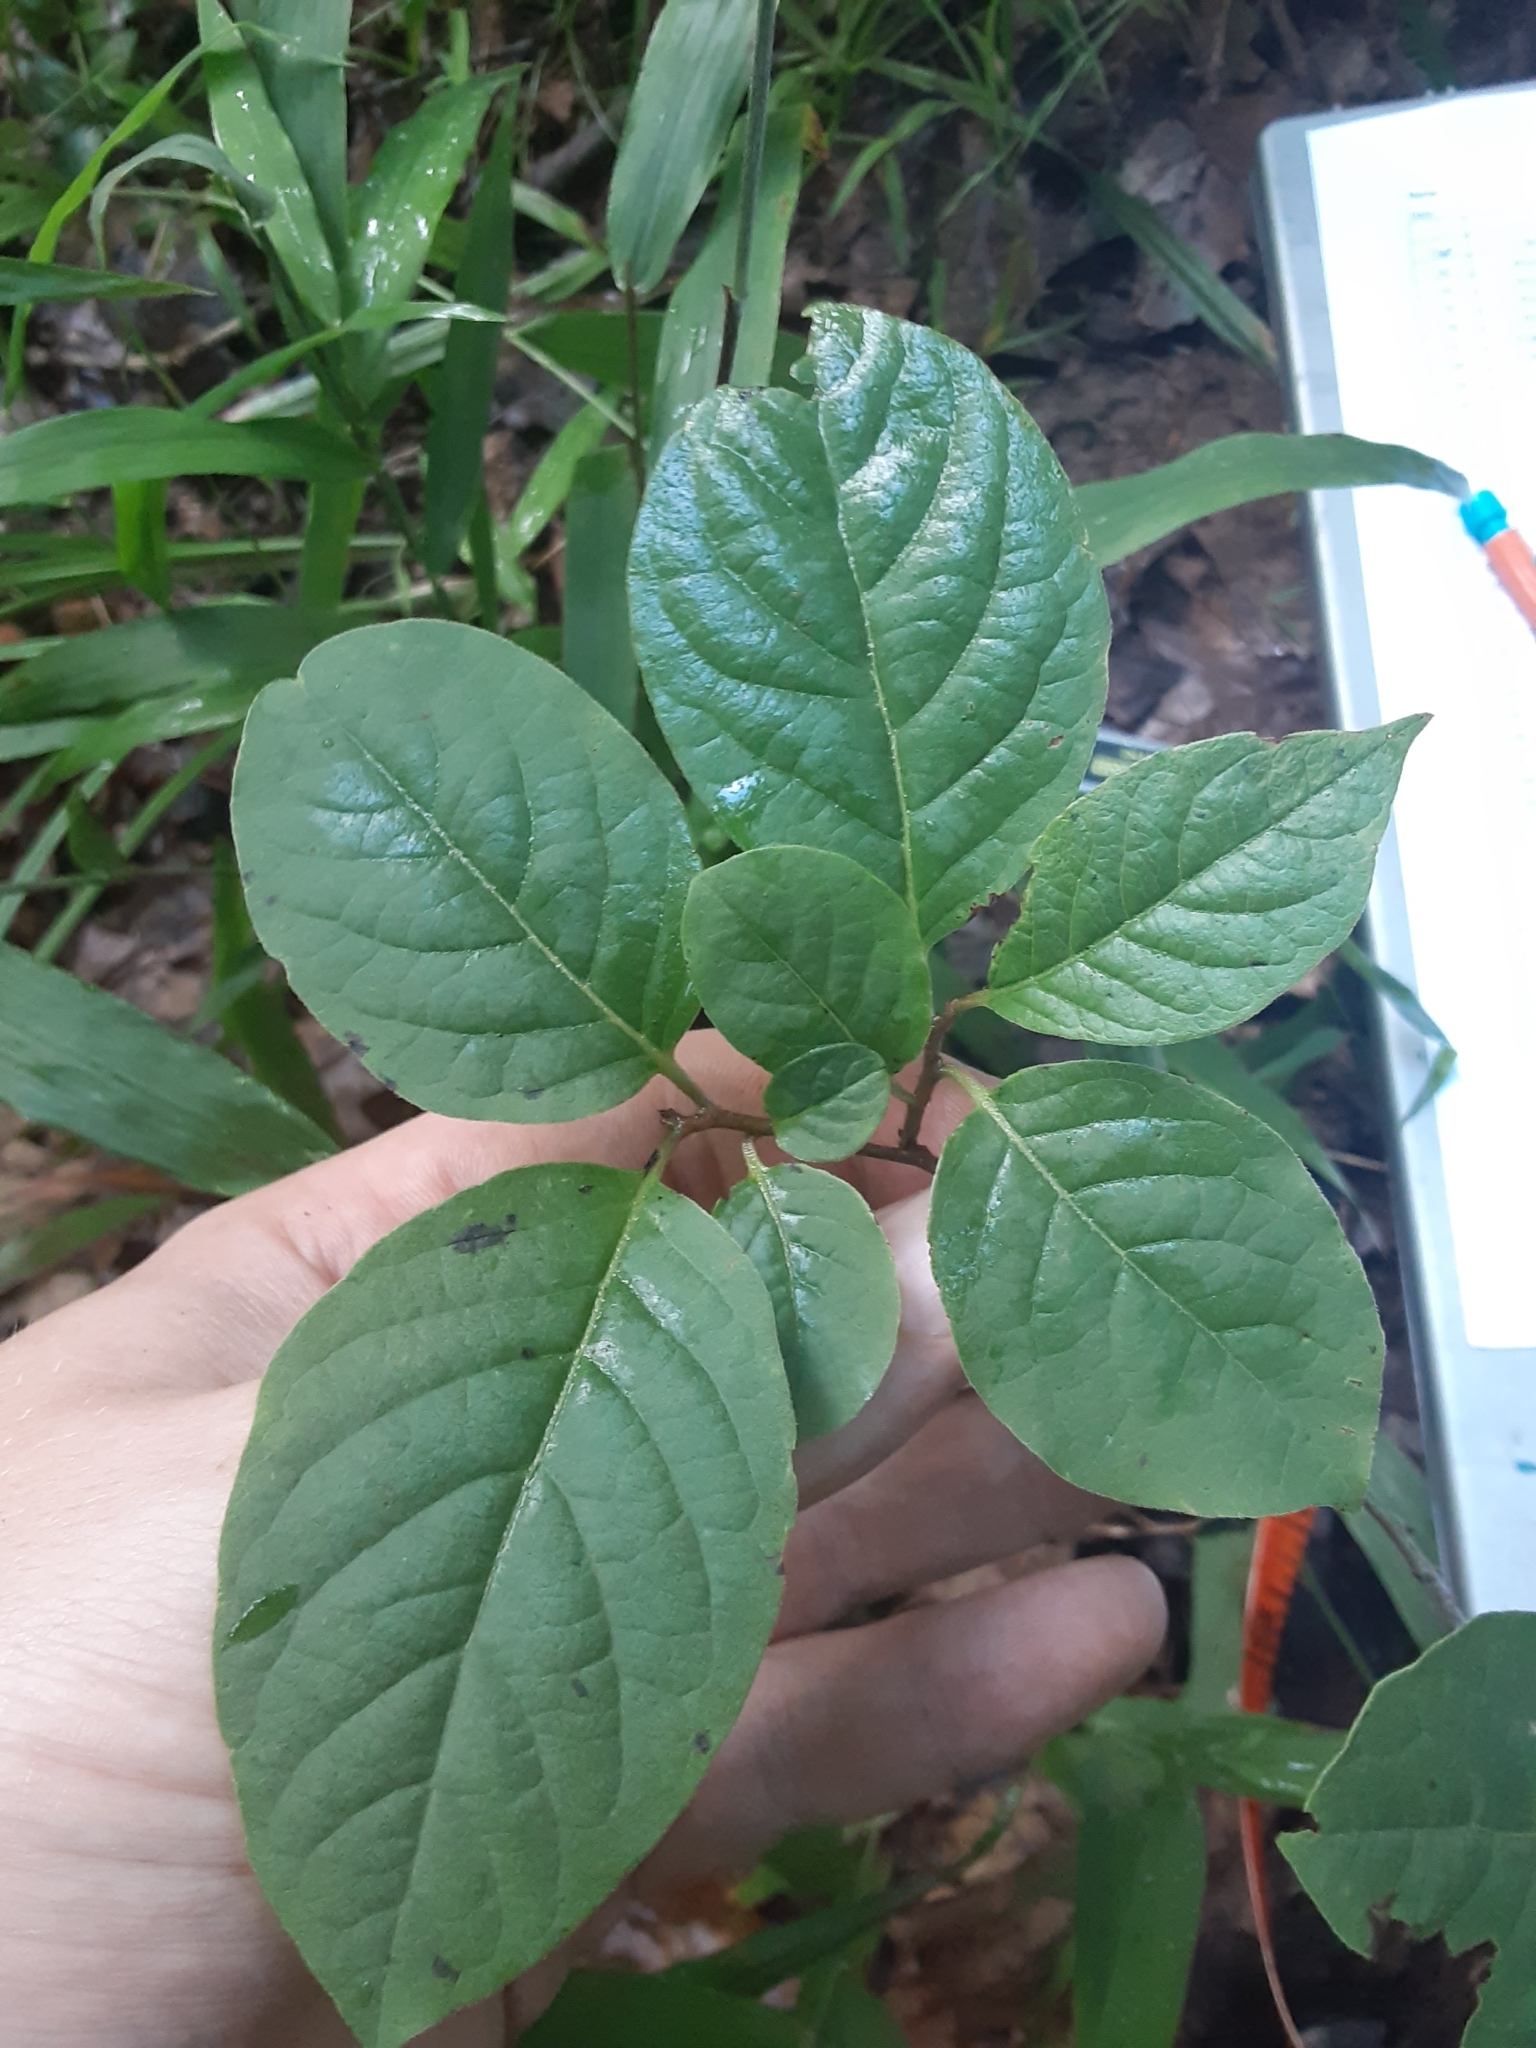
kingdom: Plantae
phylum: Tracheophyta
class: Magnoliopsida
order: Ericales
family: Ebenaceae
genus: Diospyros
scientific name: Diospyros virginiana
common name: Persimmon
